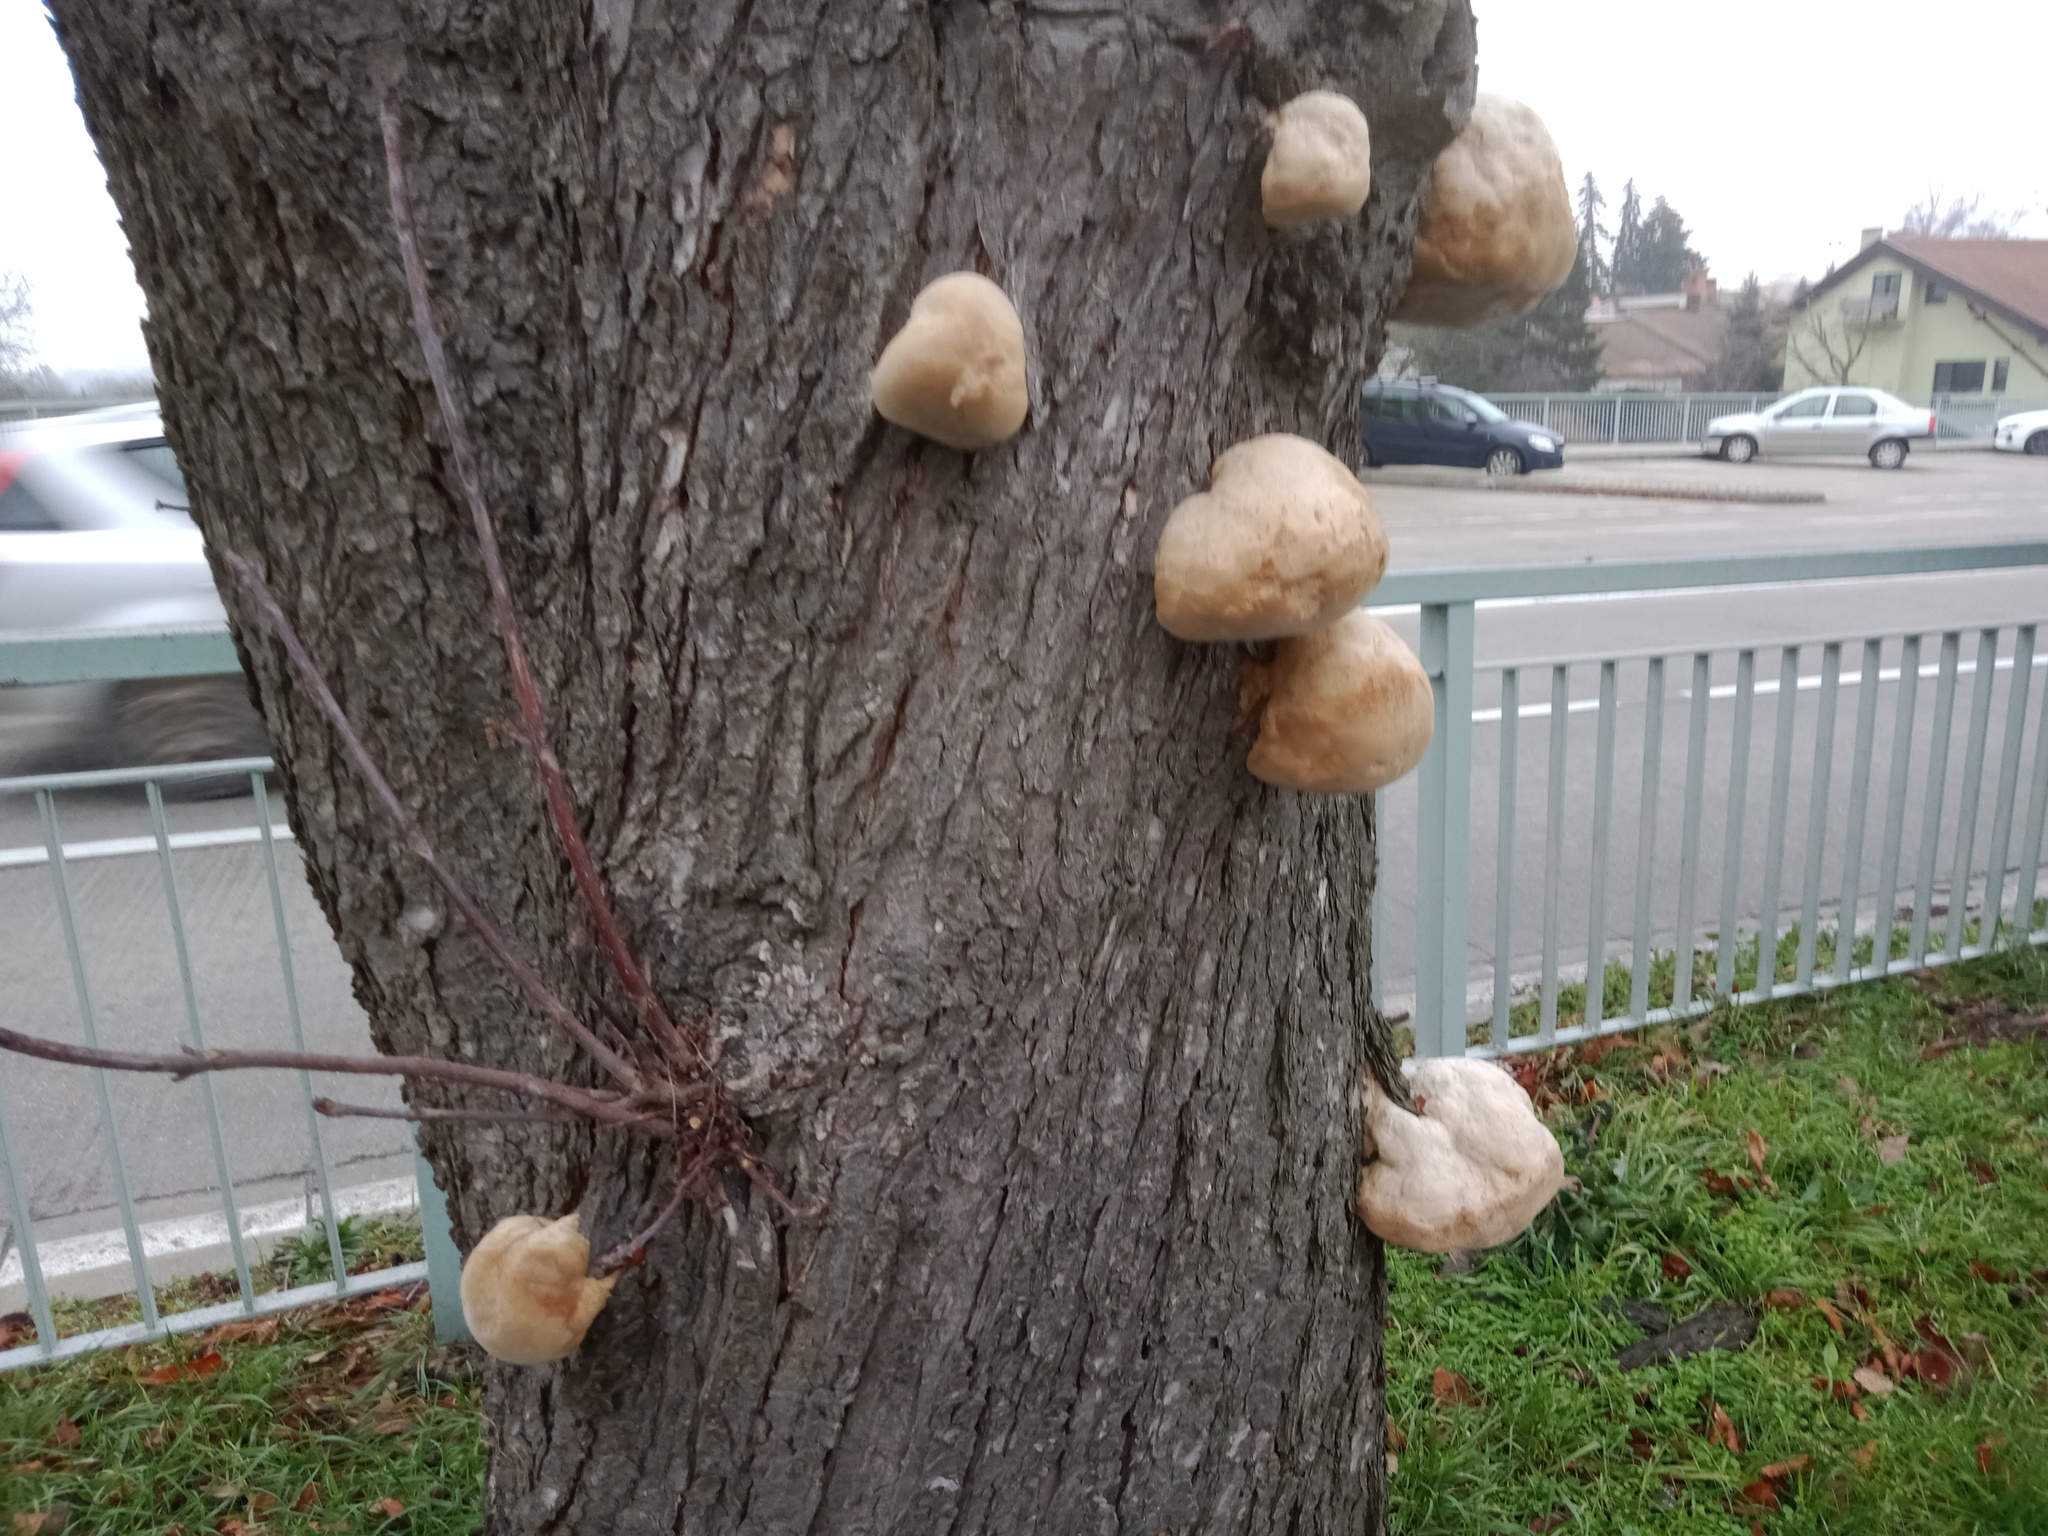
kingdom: Fungi
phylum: Basidiomycota
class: Agaricomycetes
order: Polyporales
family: Polyporaceae
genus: Fomes
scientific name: Fomes fomentarius
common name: Hoof fungus
